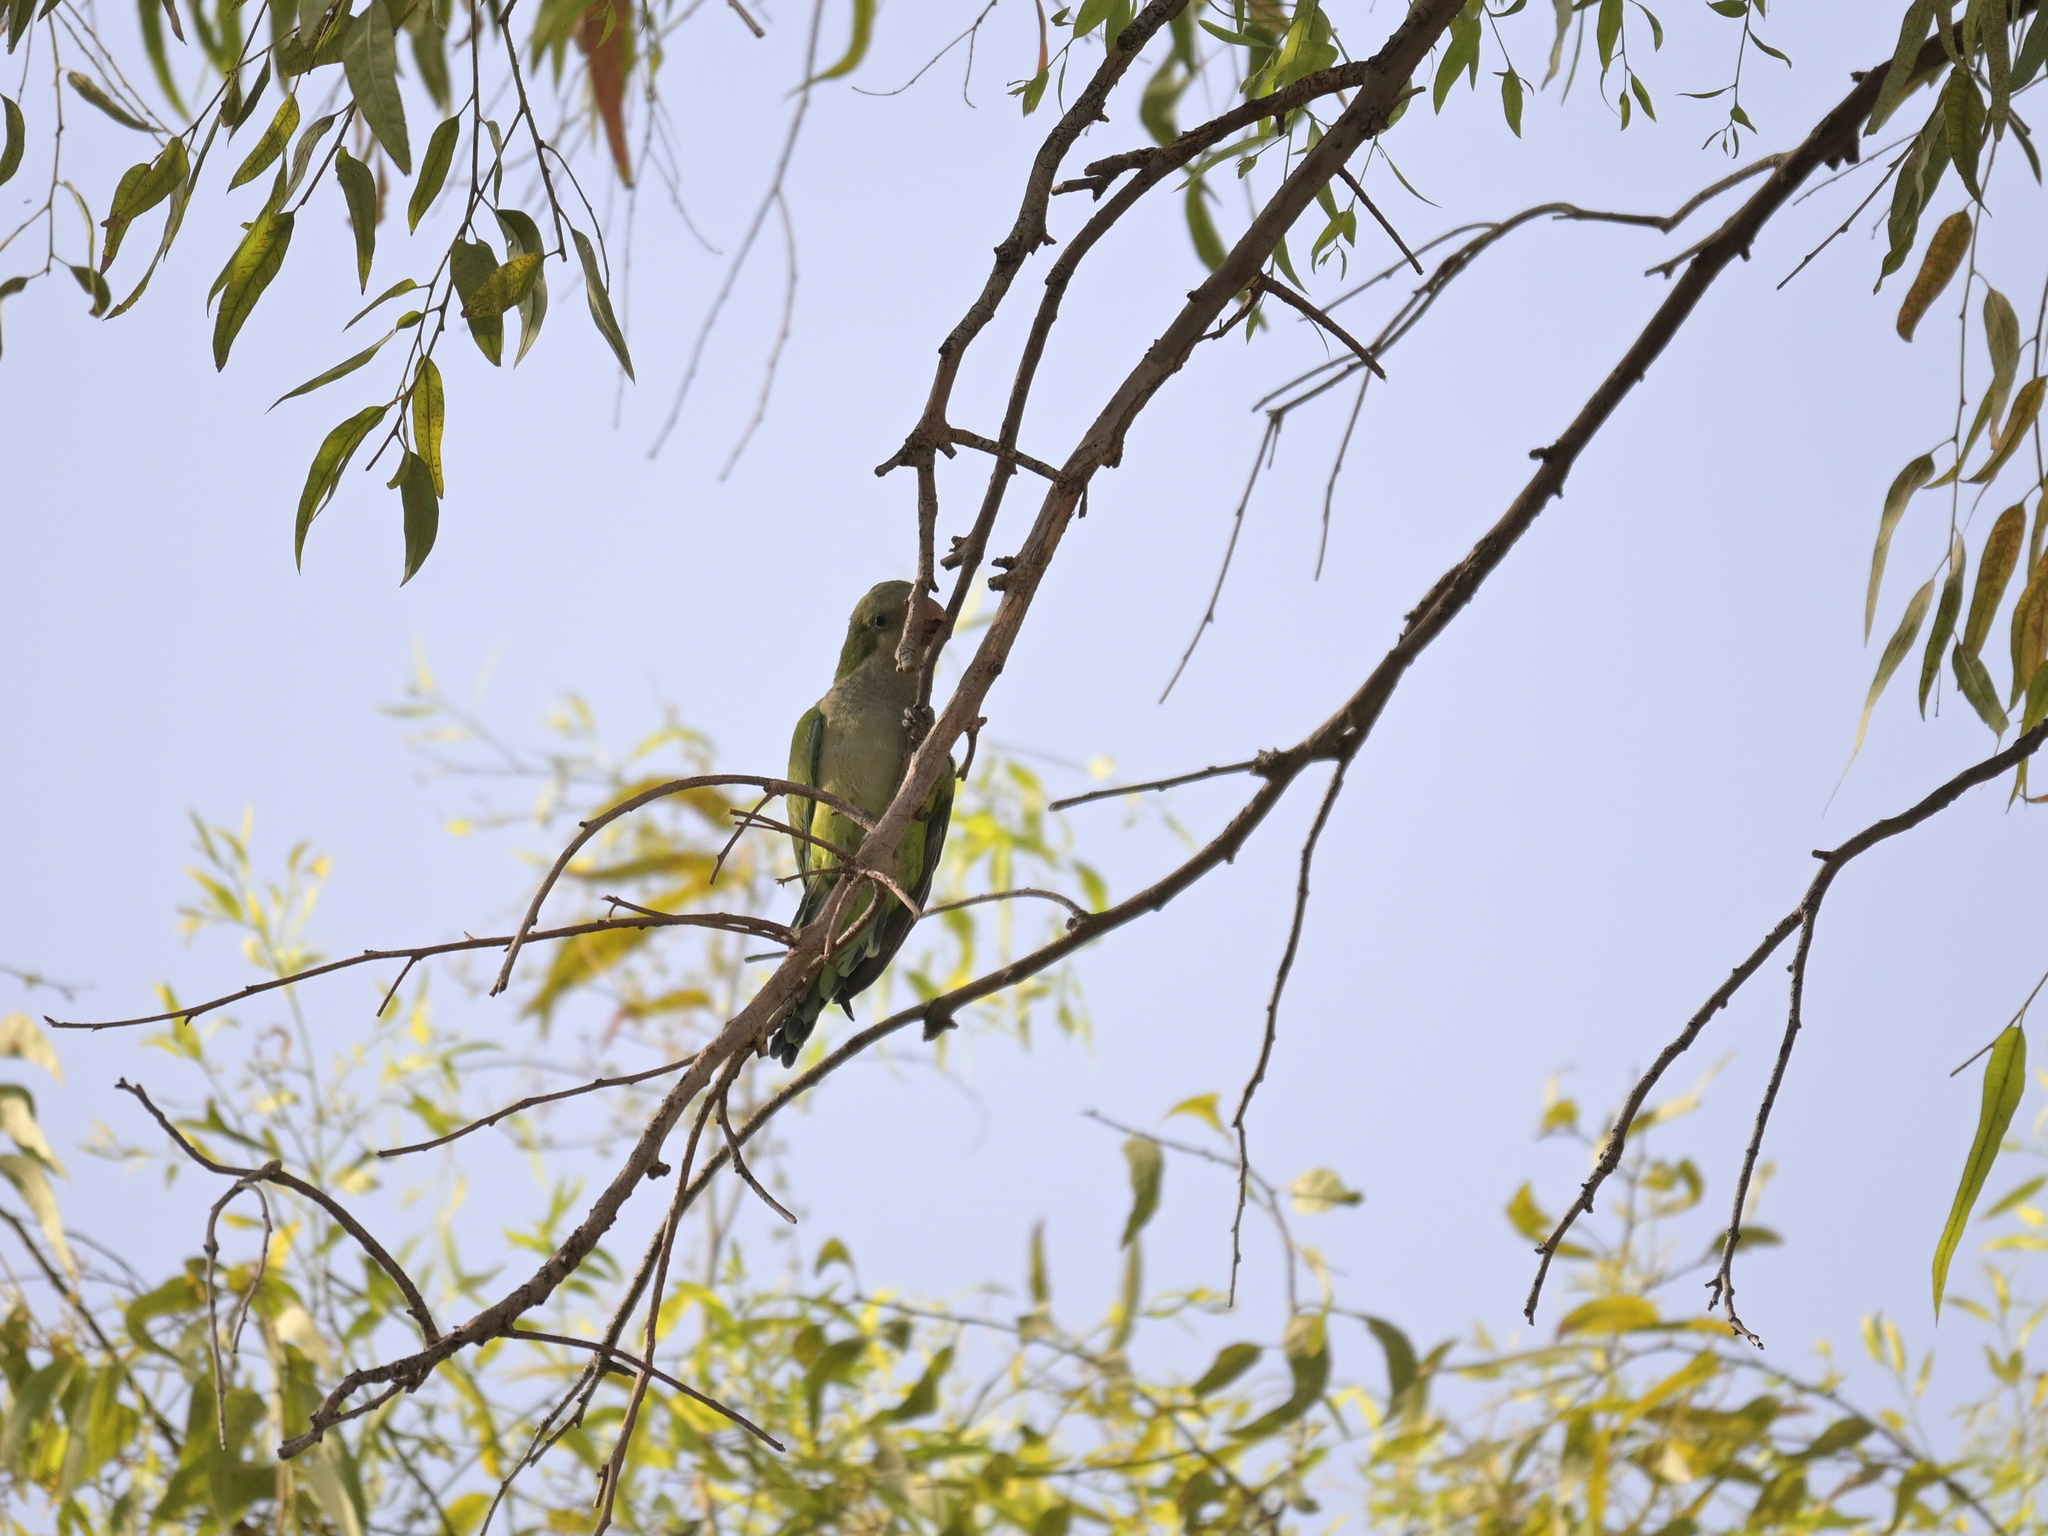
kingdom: Animalia
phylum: Chordata
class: Aves
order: Psittaciformes
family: Psittacidae
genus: Myiopsitta
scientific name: Myiopsitta monachus
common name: Monk parakeet
